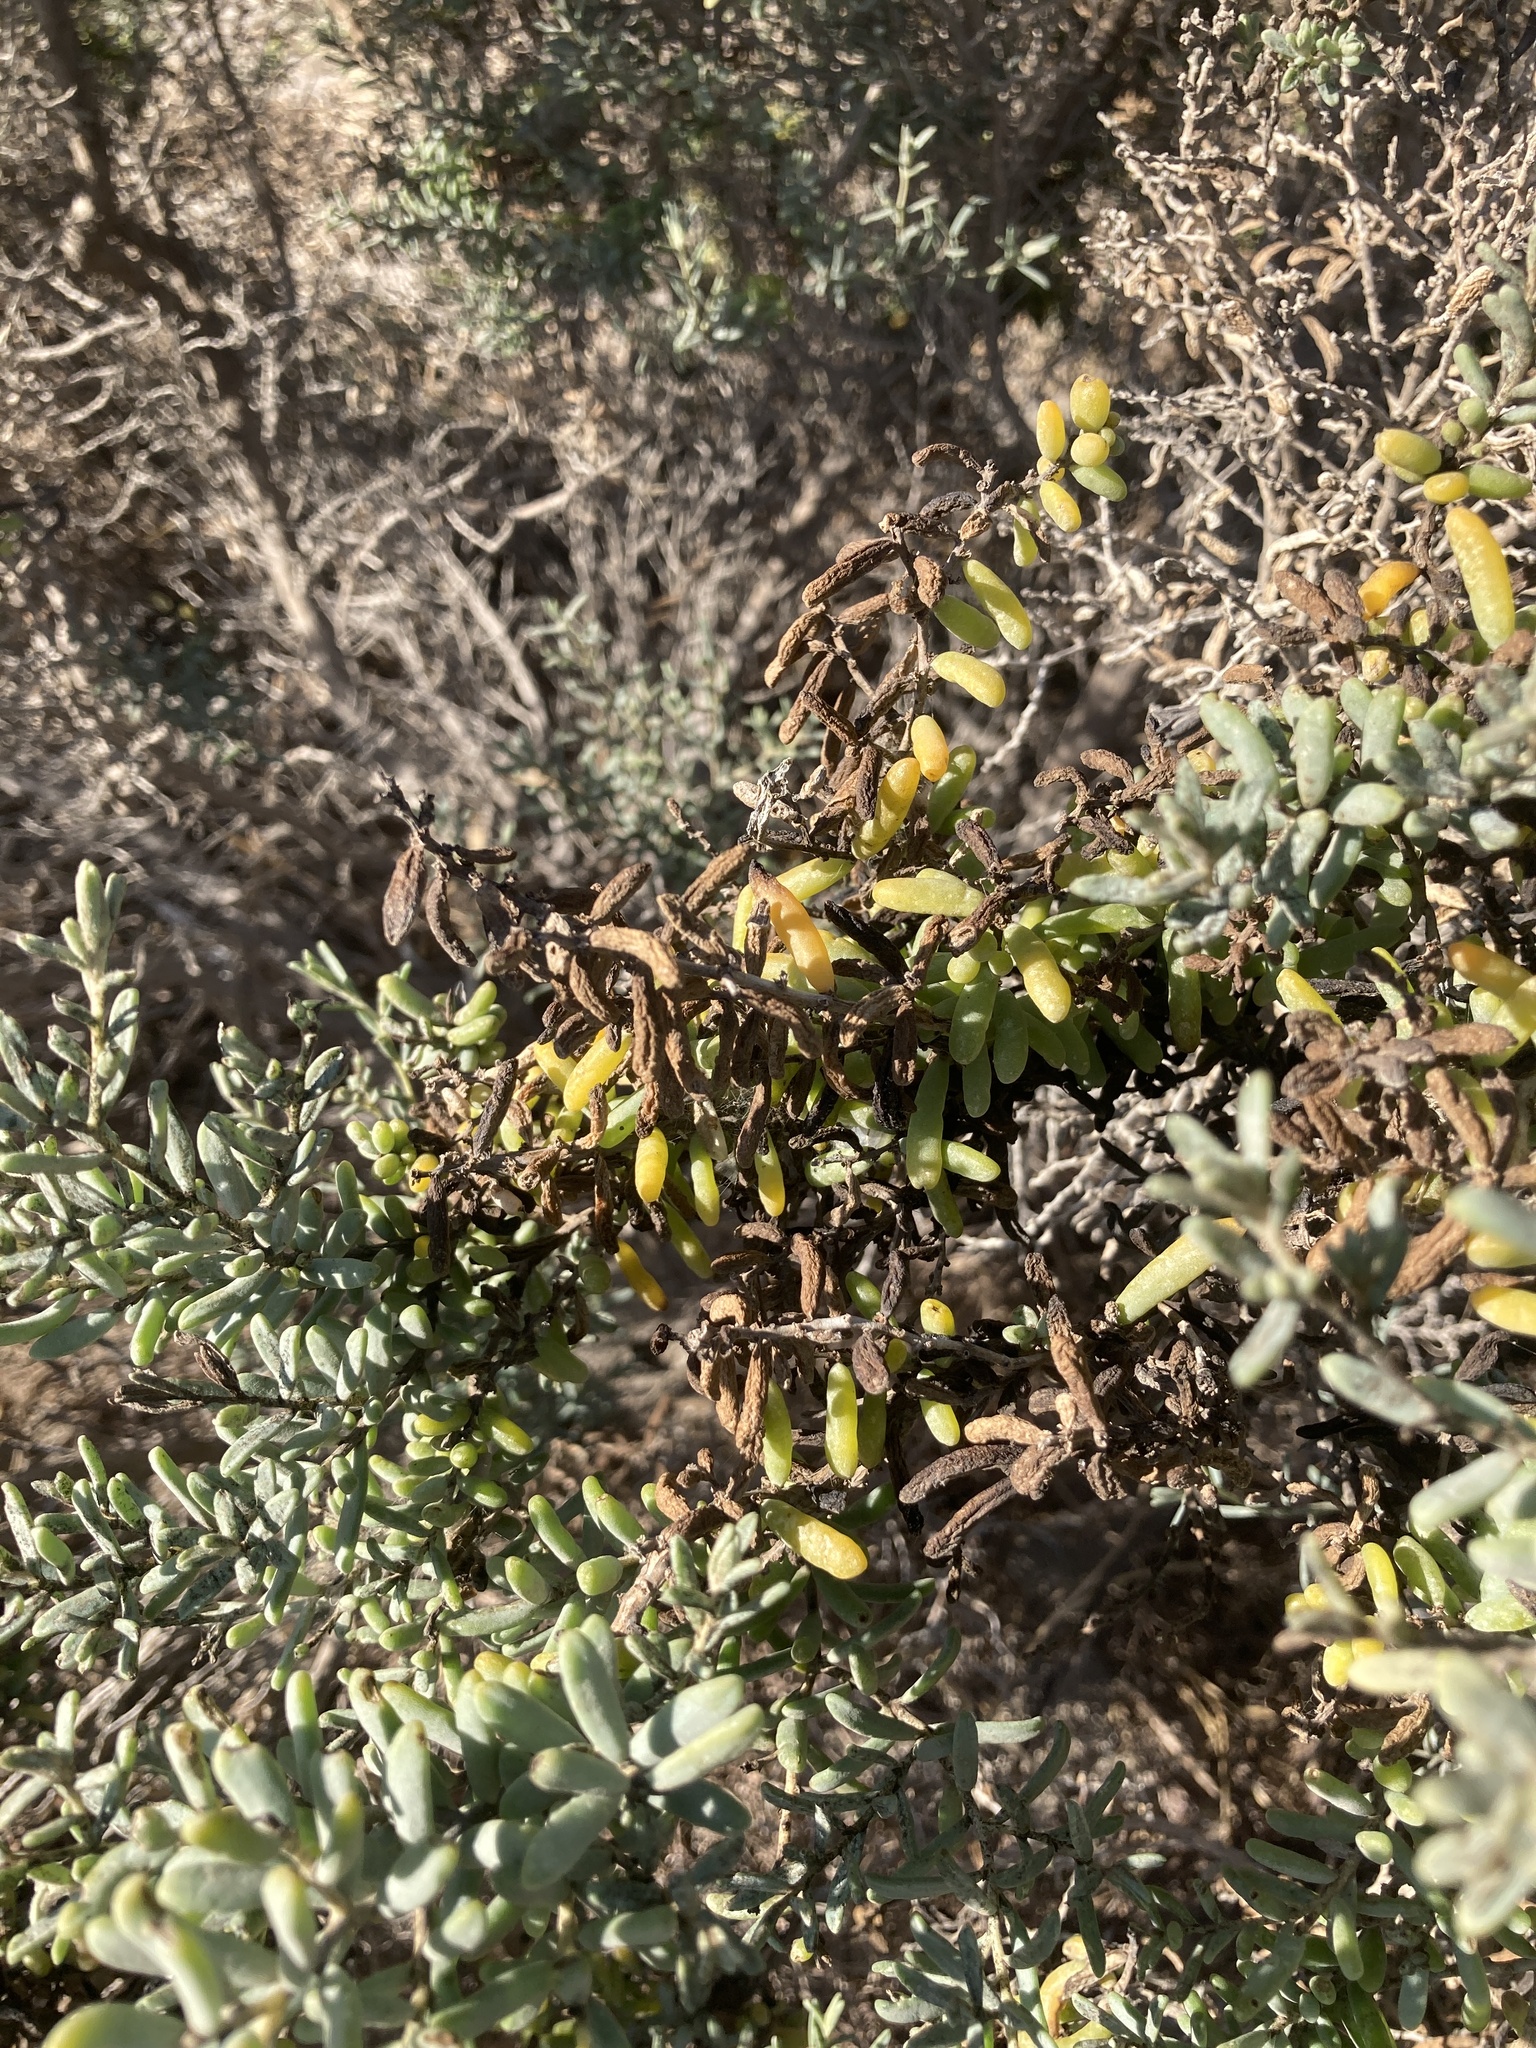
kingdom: Plantae
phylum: Tracheophyta
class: Magnoliopsida
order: Caryophyllales
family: Amaranthaceae
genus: Suaeda
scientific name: Suaeda divaricata
